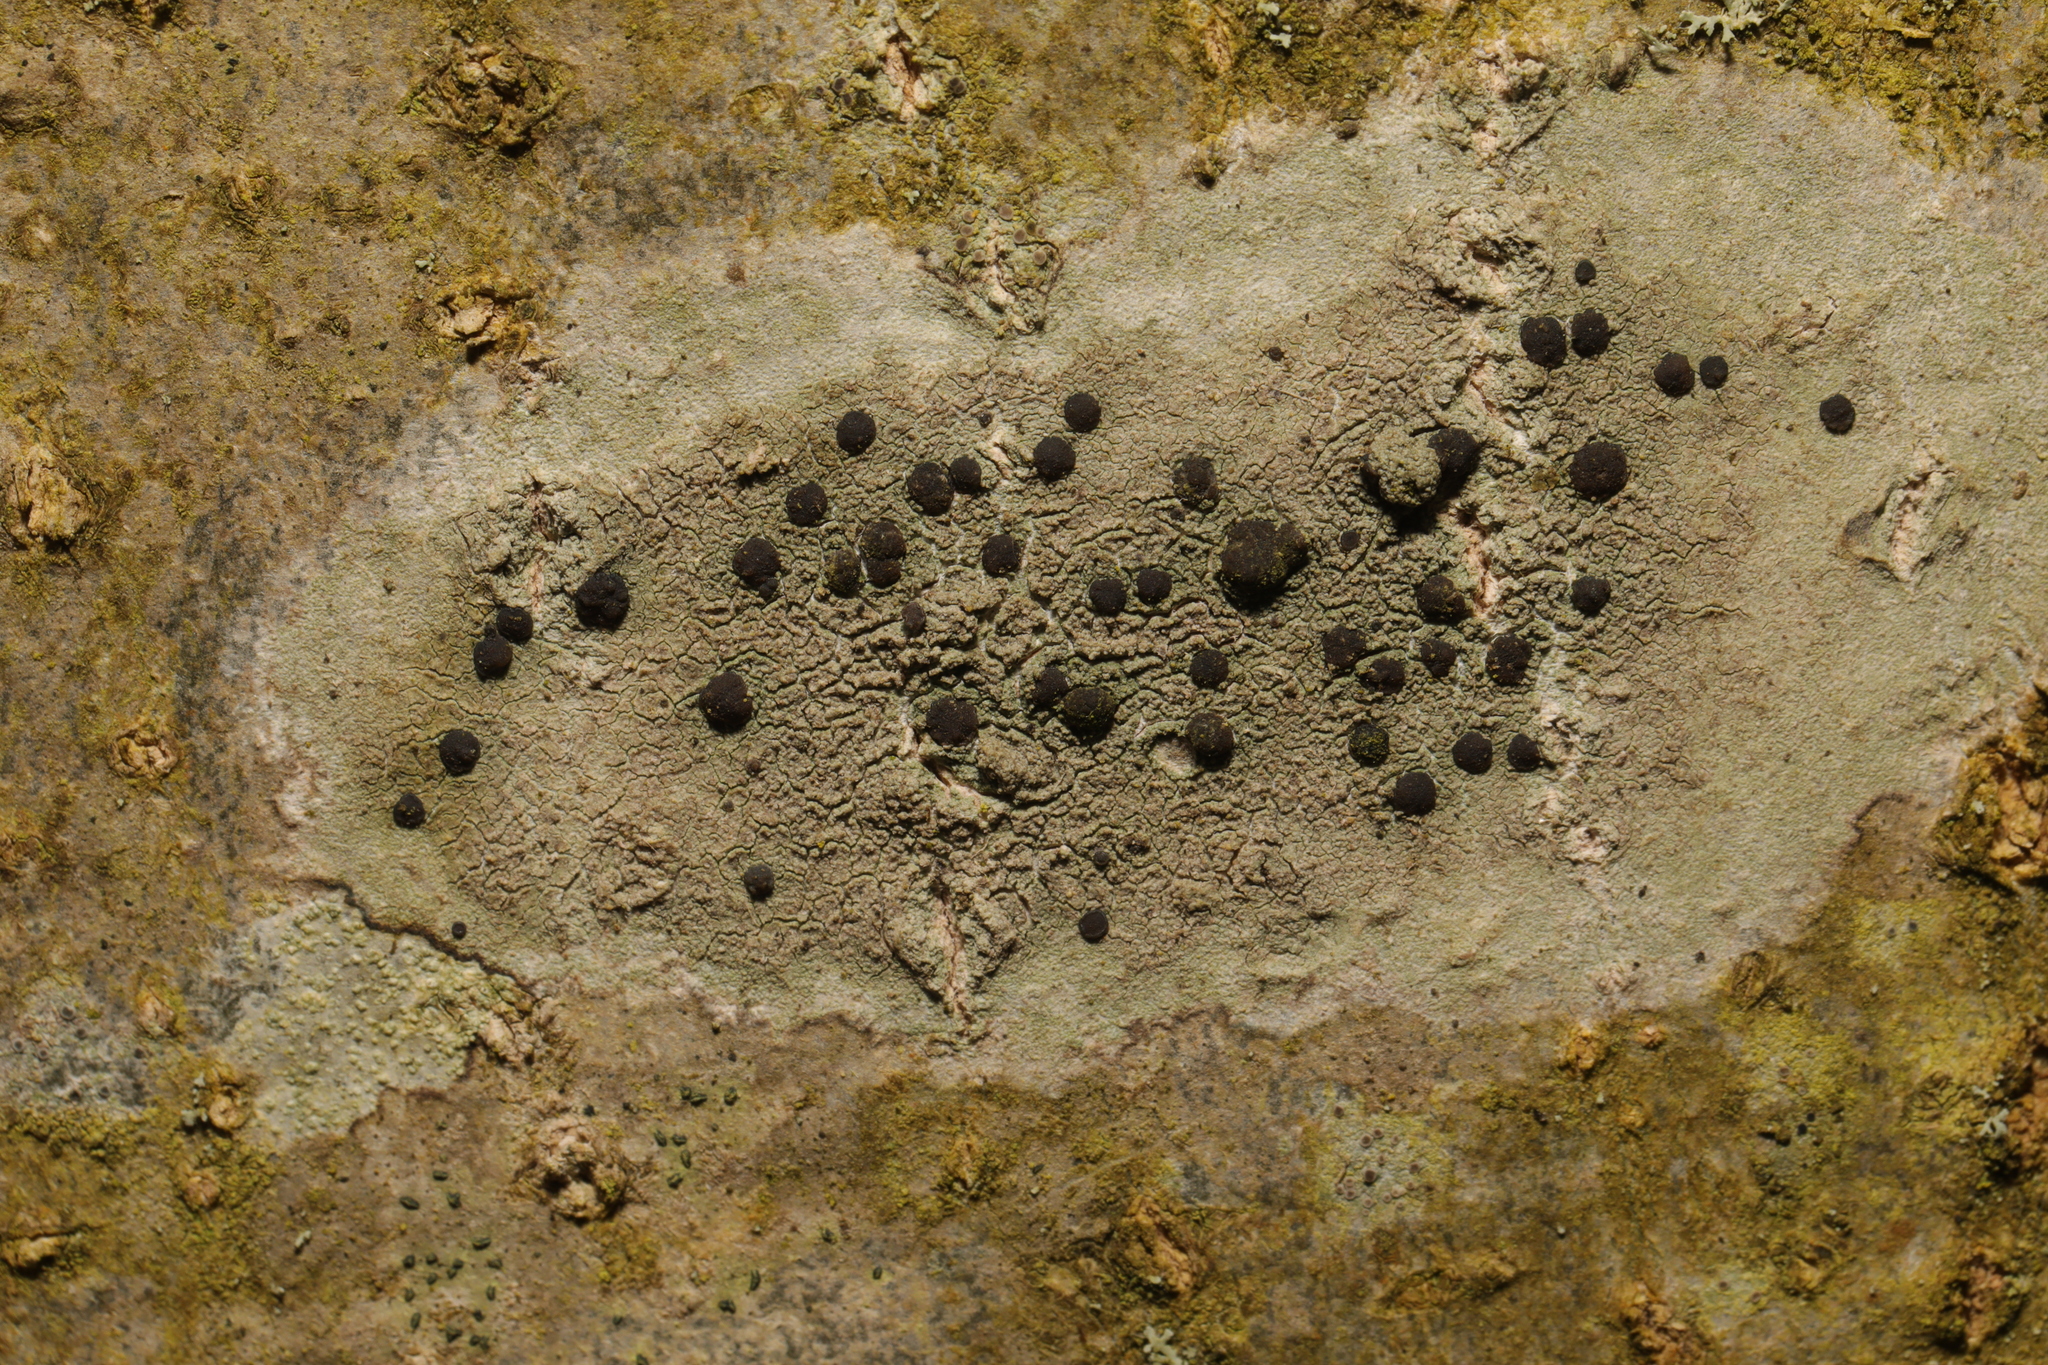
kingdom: Fungi
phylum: Ascomycota
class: Lecanoromycetes
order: Lecanorales
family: Lecanoraceae
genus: Lecidella
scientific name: Lecidella elaeochroma
